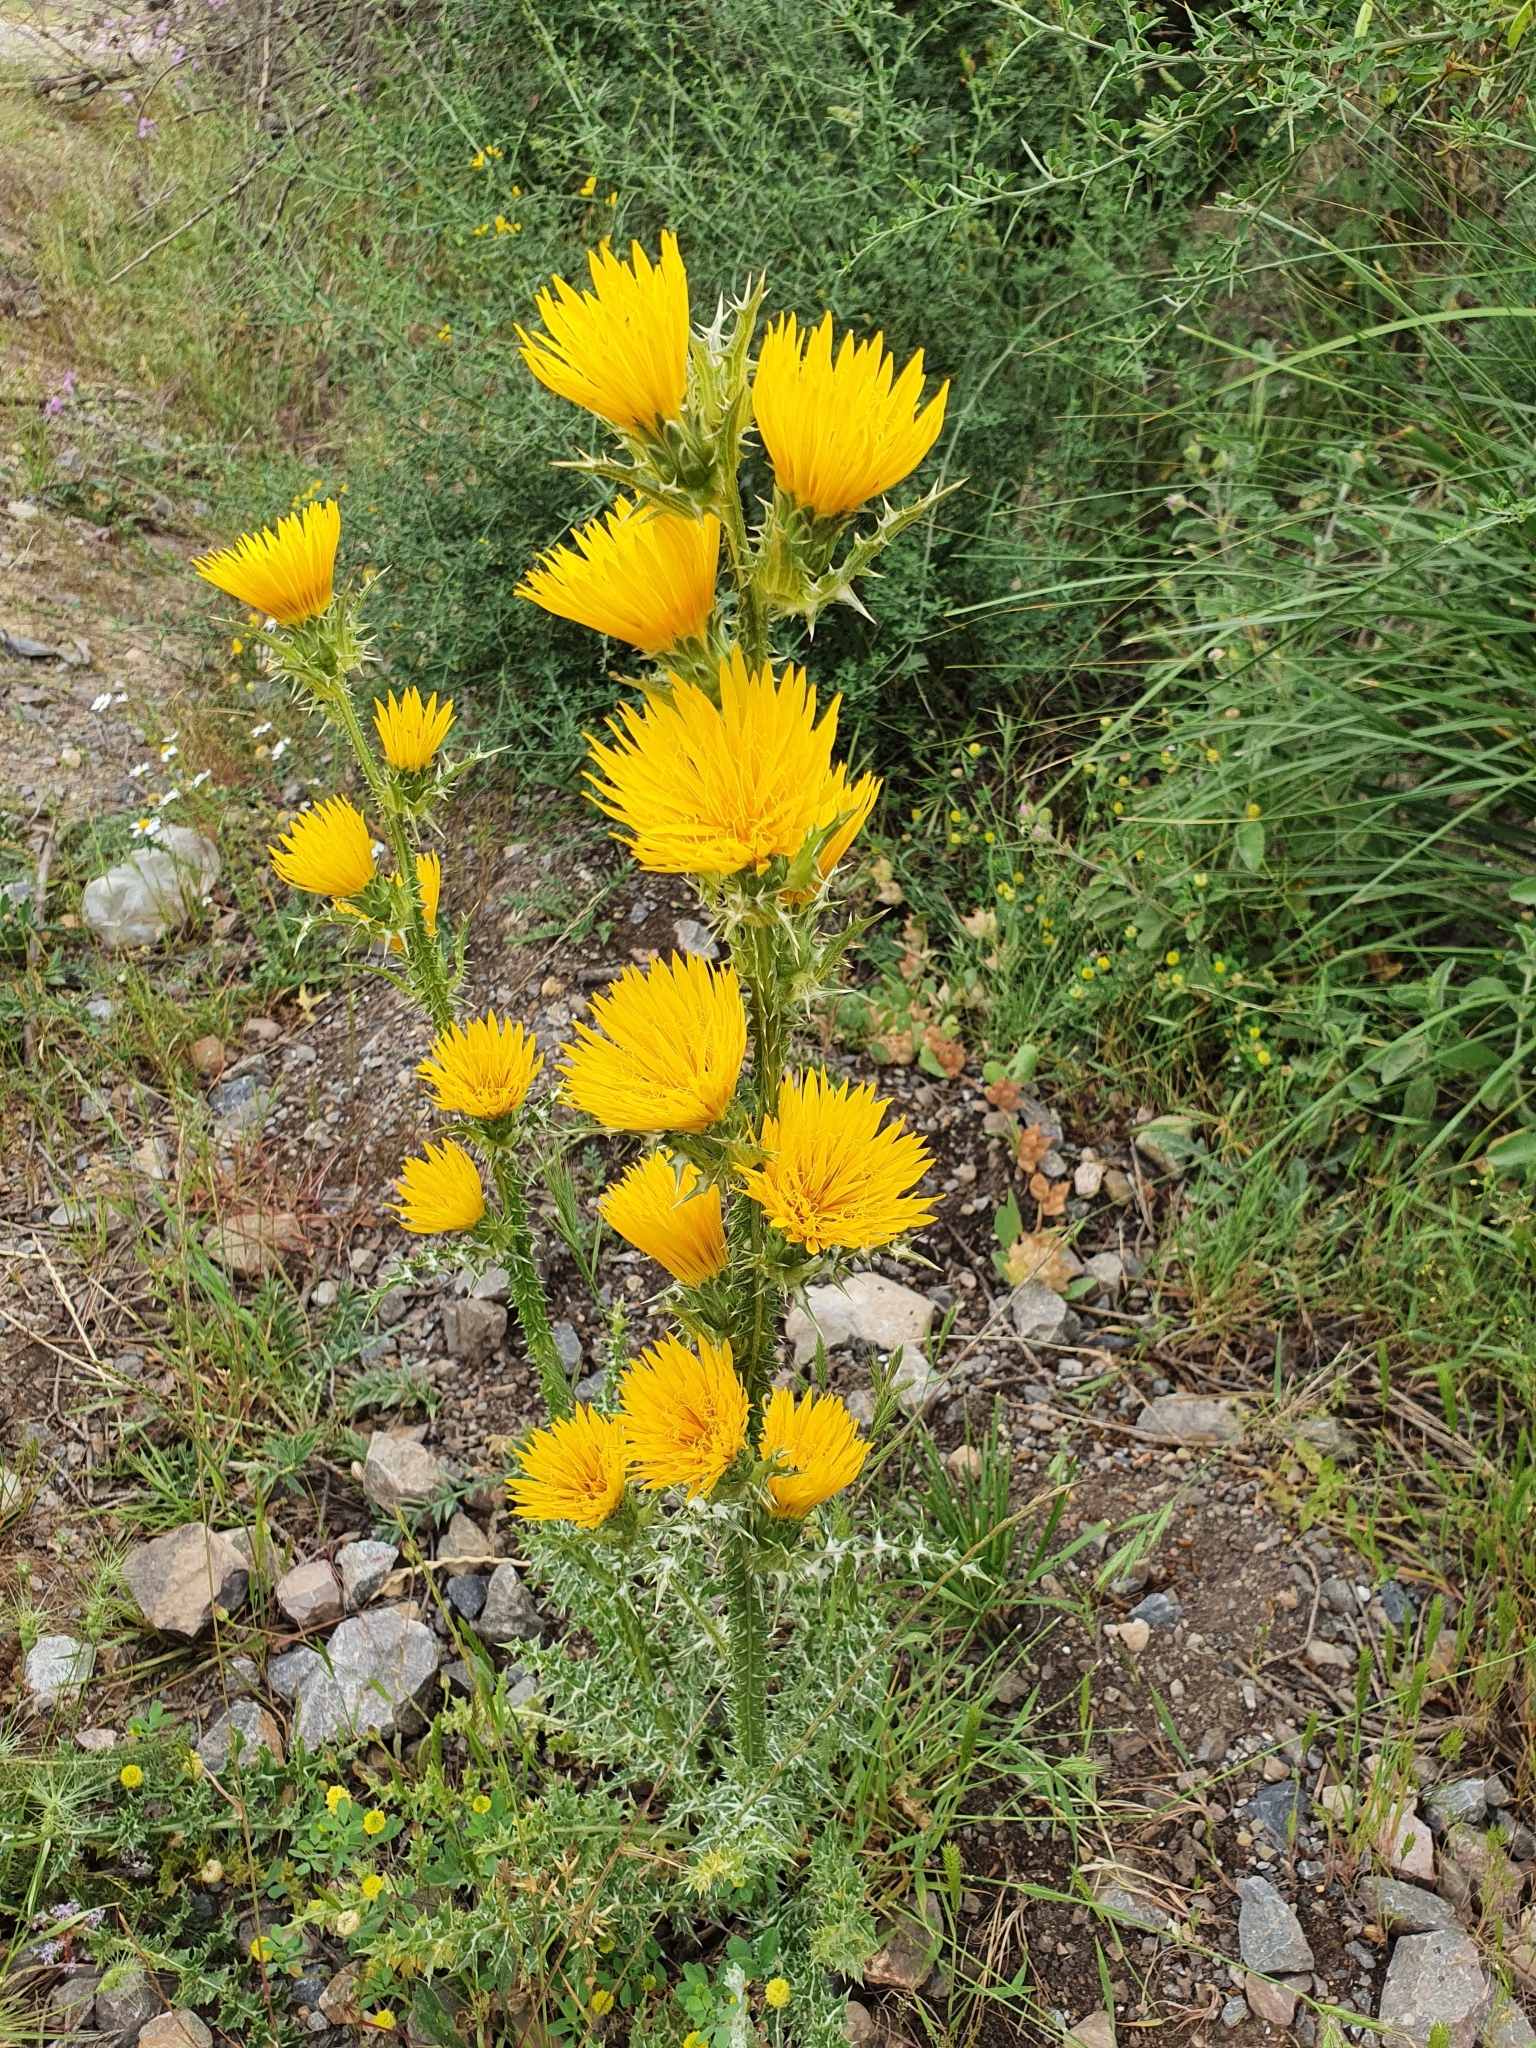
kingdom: Plantae
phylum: Tracheophyta
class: Magnoliopsida
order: Asterales
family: Asteraceae
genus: Scolymus
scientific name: Scolymus grandiflorus
